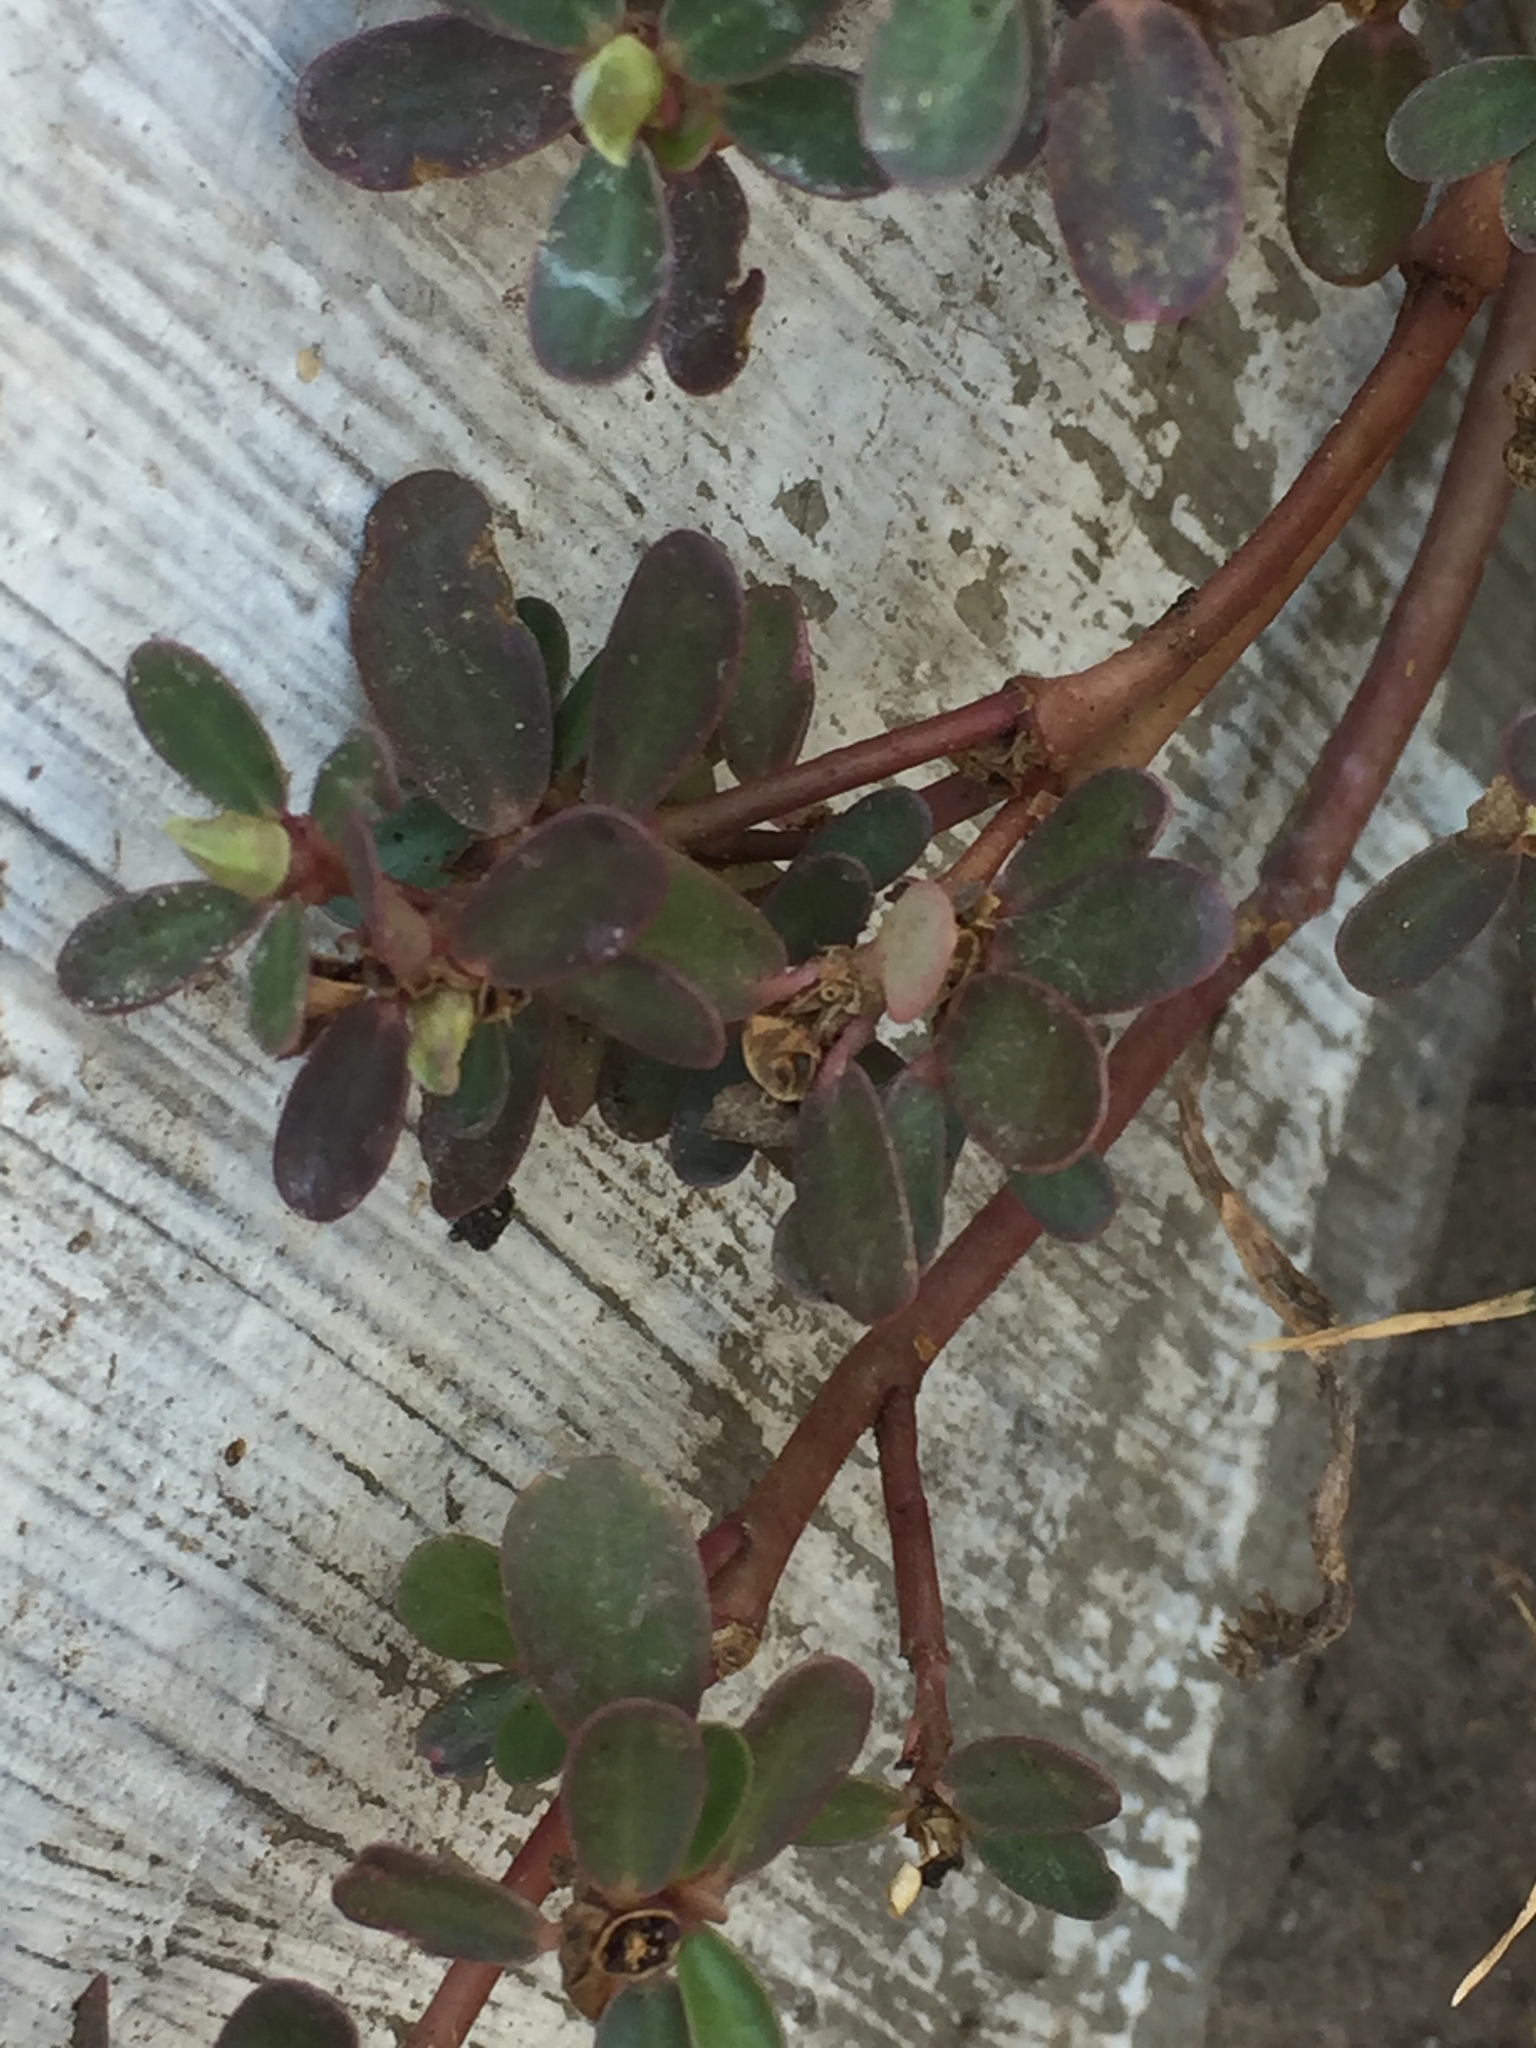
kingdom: Plantae
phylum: Tracheophyta
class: Magnoliopsida
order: Caryophyllales
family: Portulacaceae
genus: Portulaca
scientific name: Portulaca oleracea
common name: Common purslane
